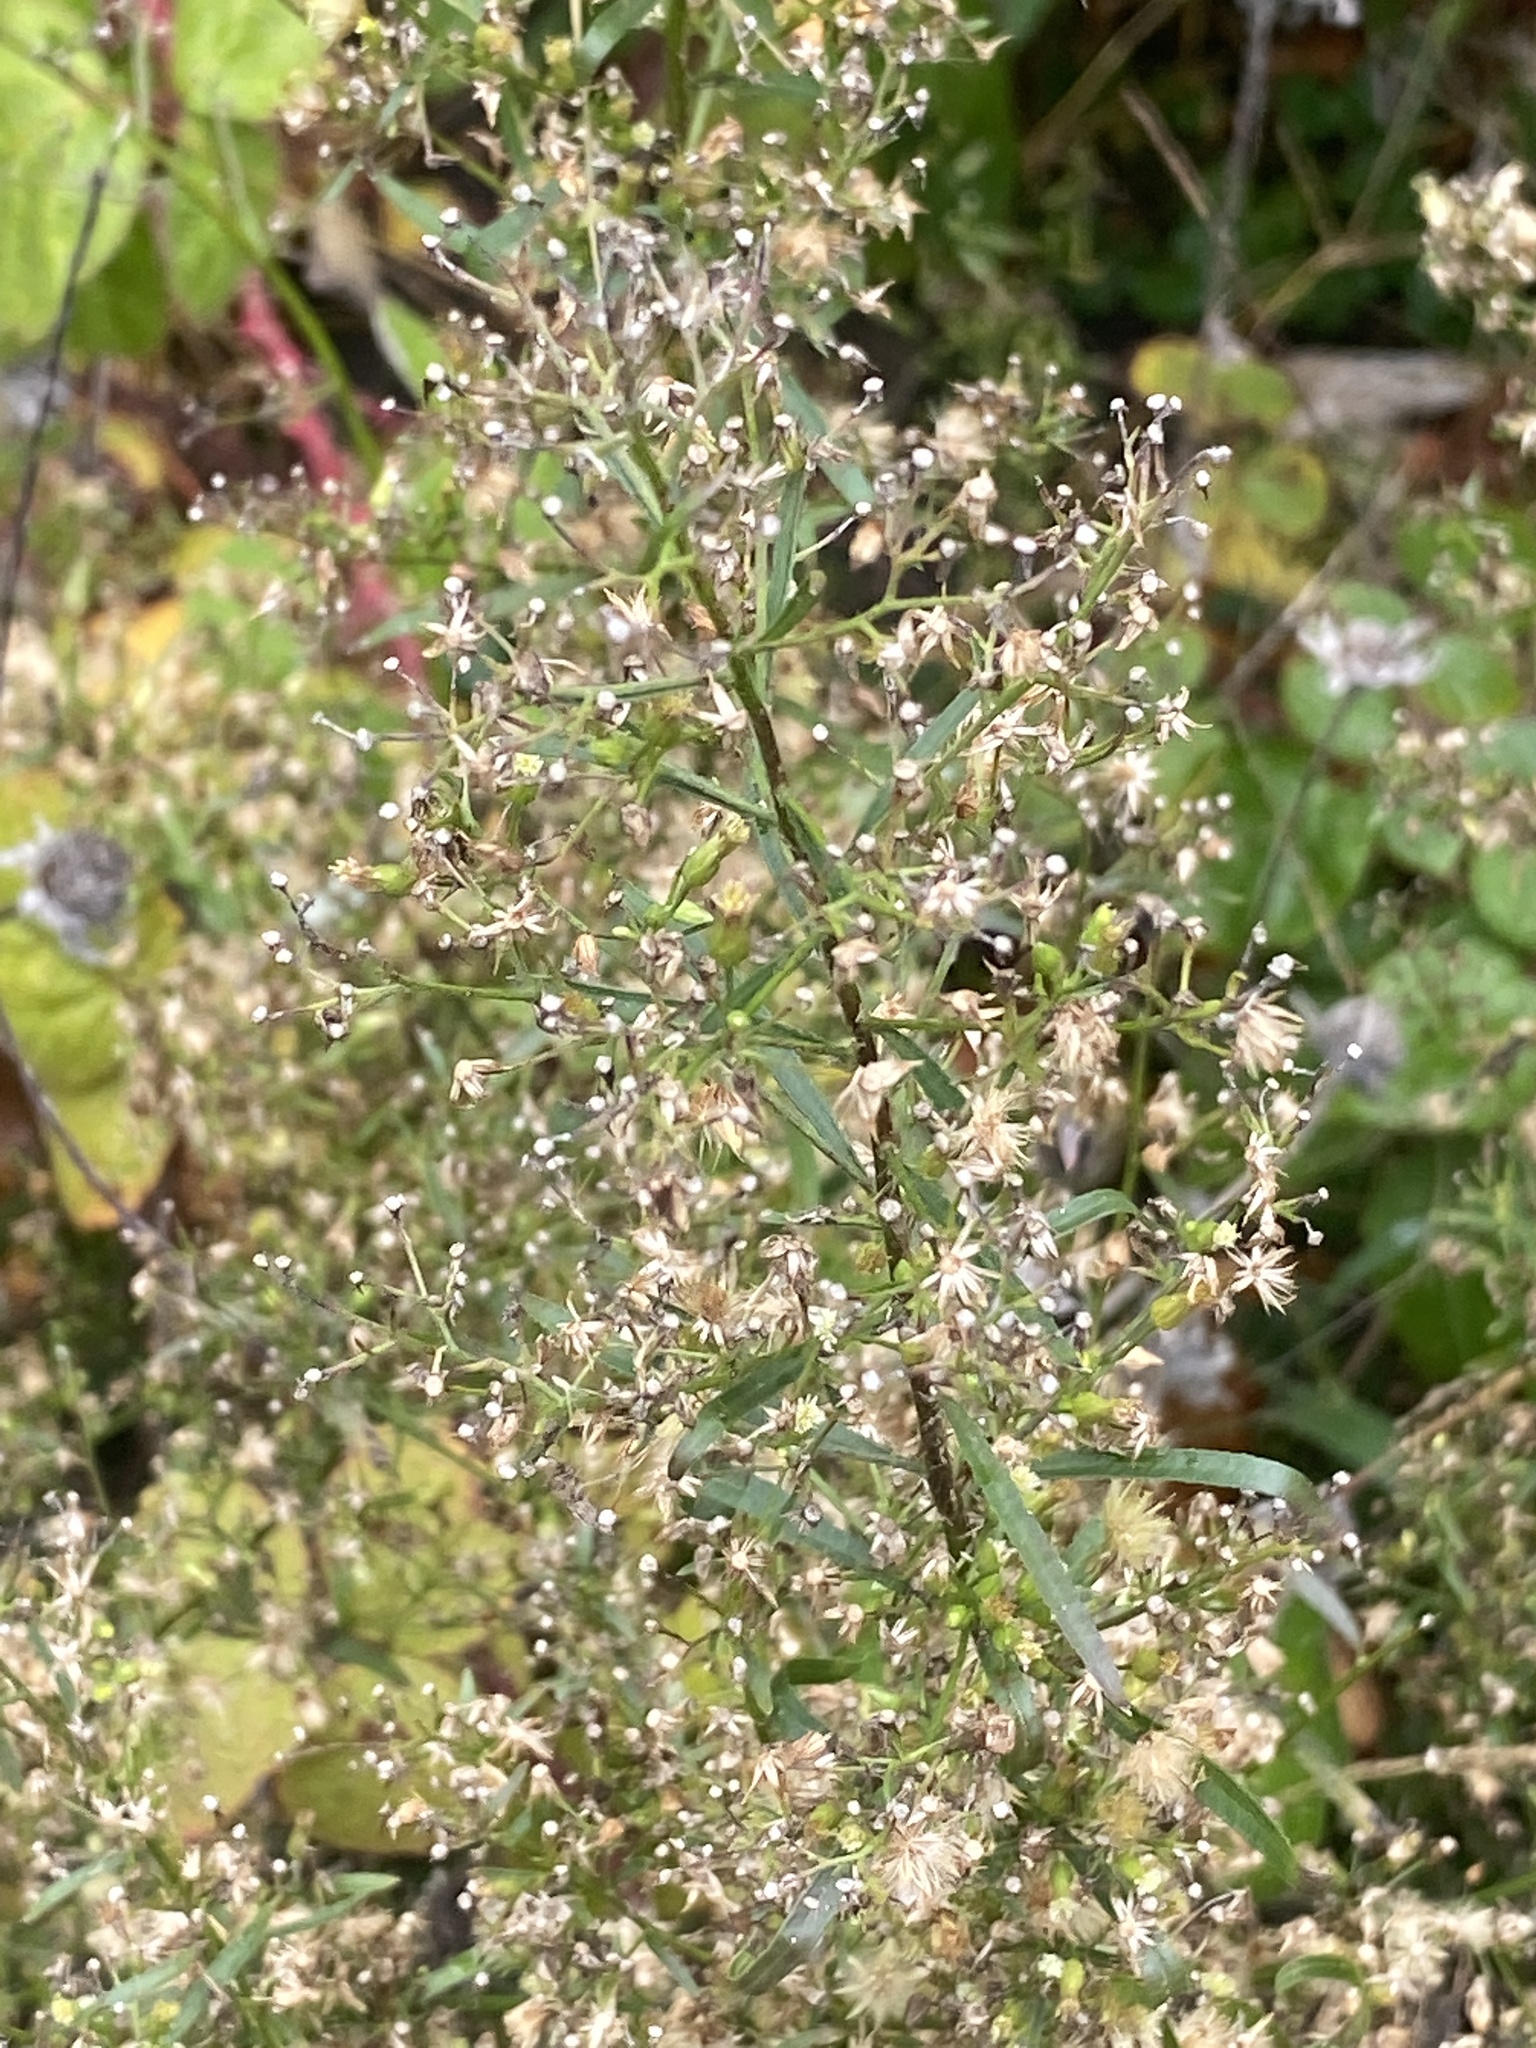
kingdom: Plantae
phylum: Tracheophyta
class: Magnoliopsida
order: Asterales
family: Asteraceae
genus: Erigeron
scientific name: Erigeron canadensis
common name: Canadian fleabane
